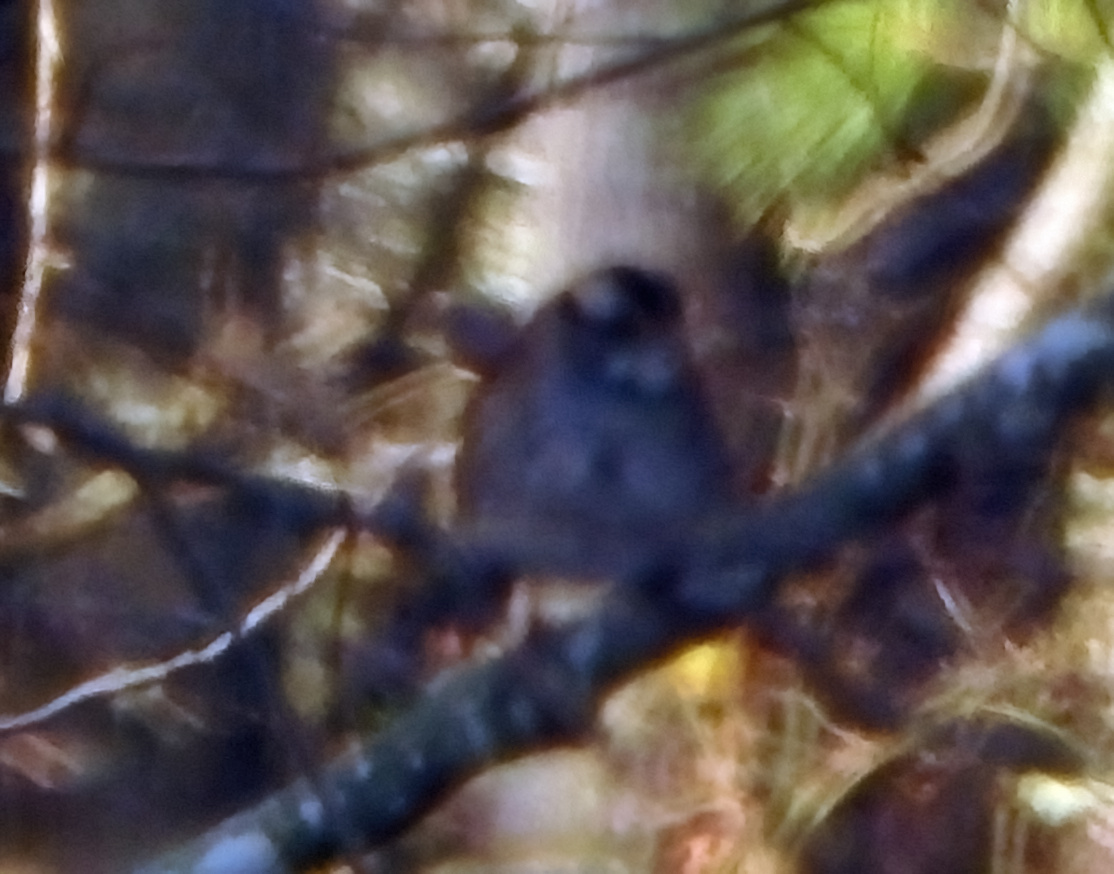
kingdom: Animalia
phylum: Chordata
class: Aves
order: Passeriformes
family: Passerellidae
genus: Zonotrichia
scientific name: Zonotrichia albicollis
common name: White-throated sparrow
